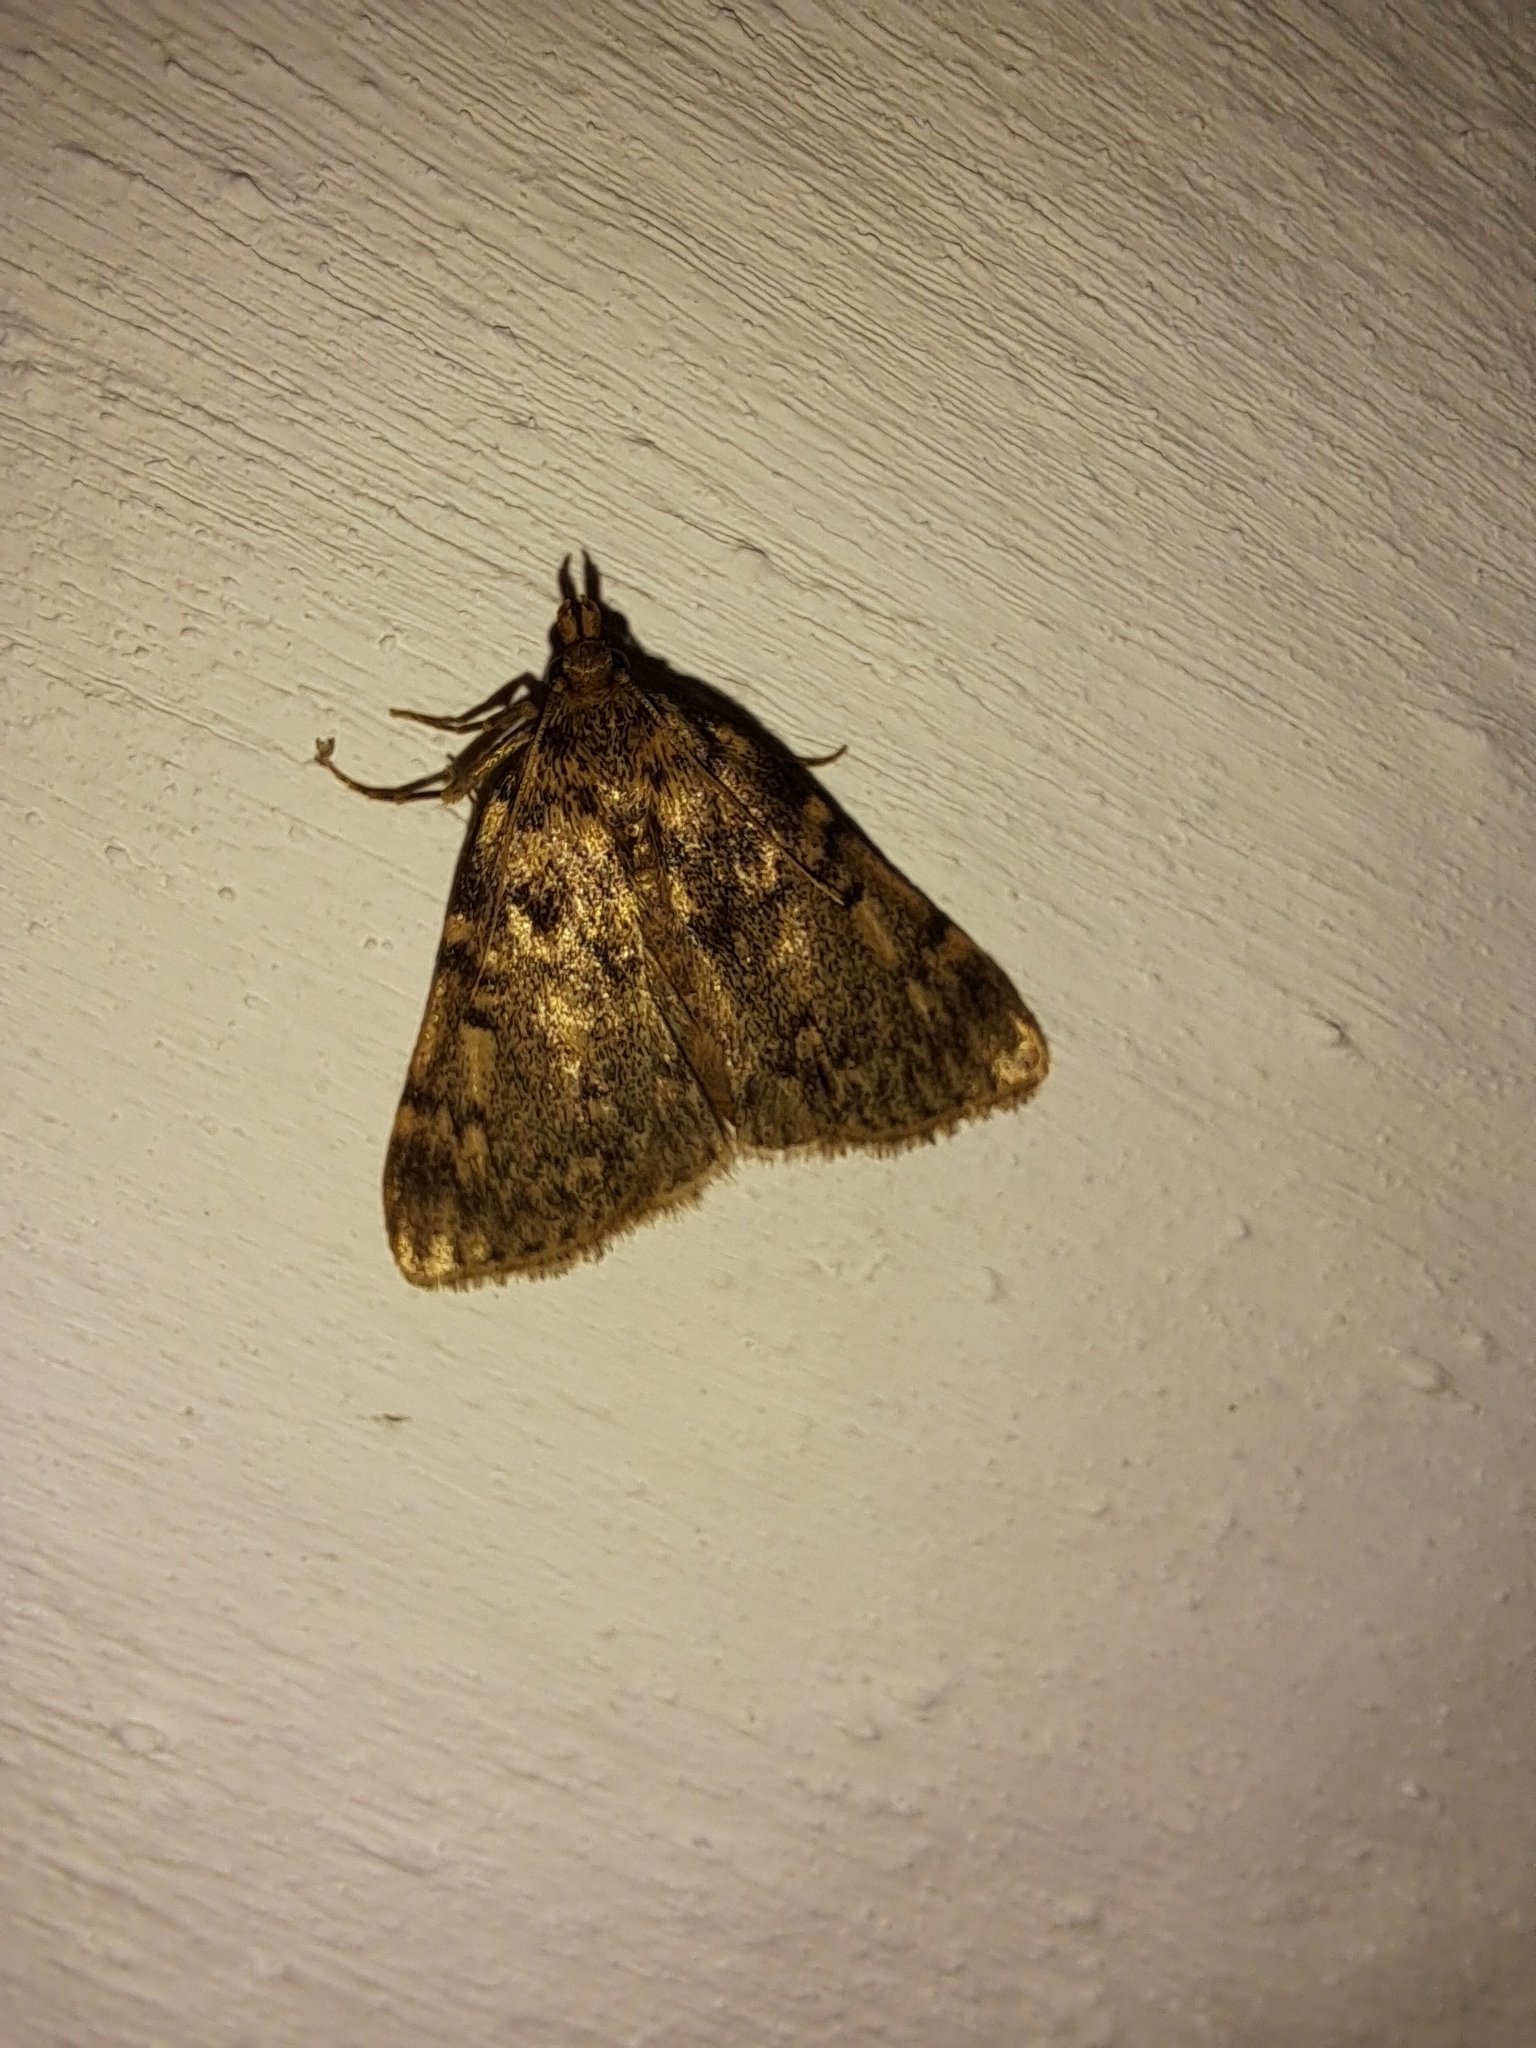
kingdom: Animalia
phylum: Arthropoda
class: Insecta
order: Lepidoptera
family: Pyralidae
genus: Aglossa
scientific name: Aglossa asiatica
